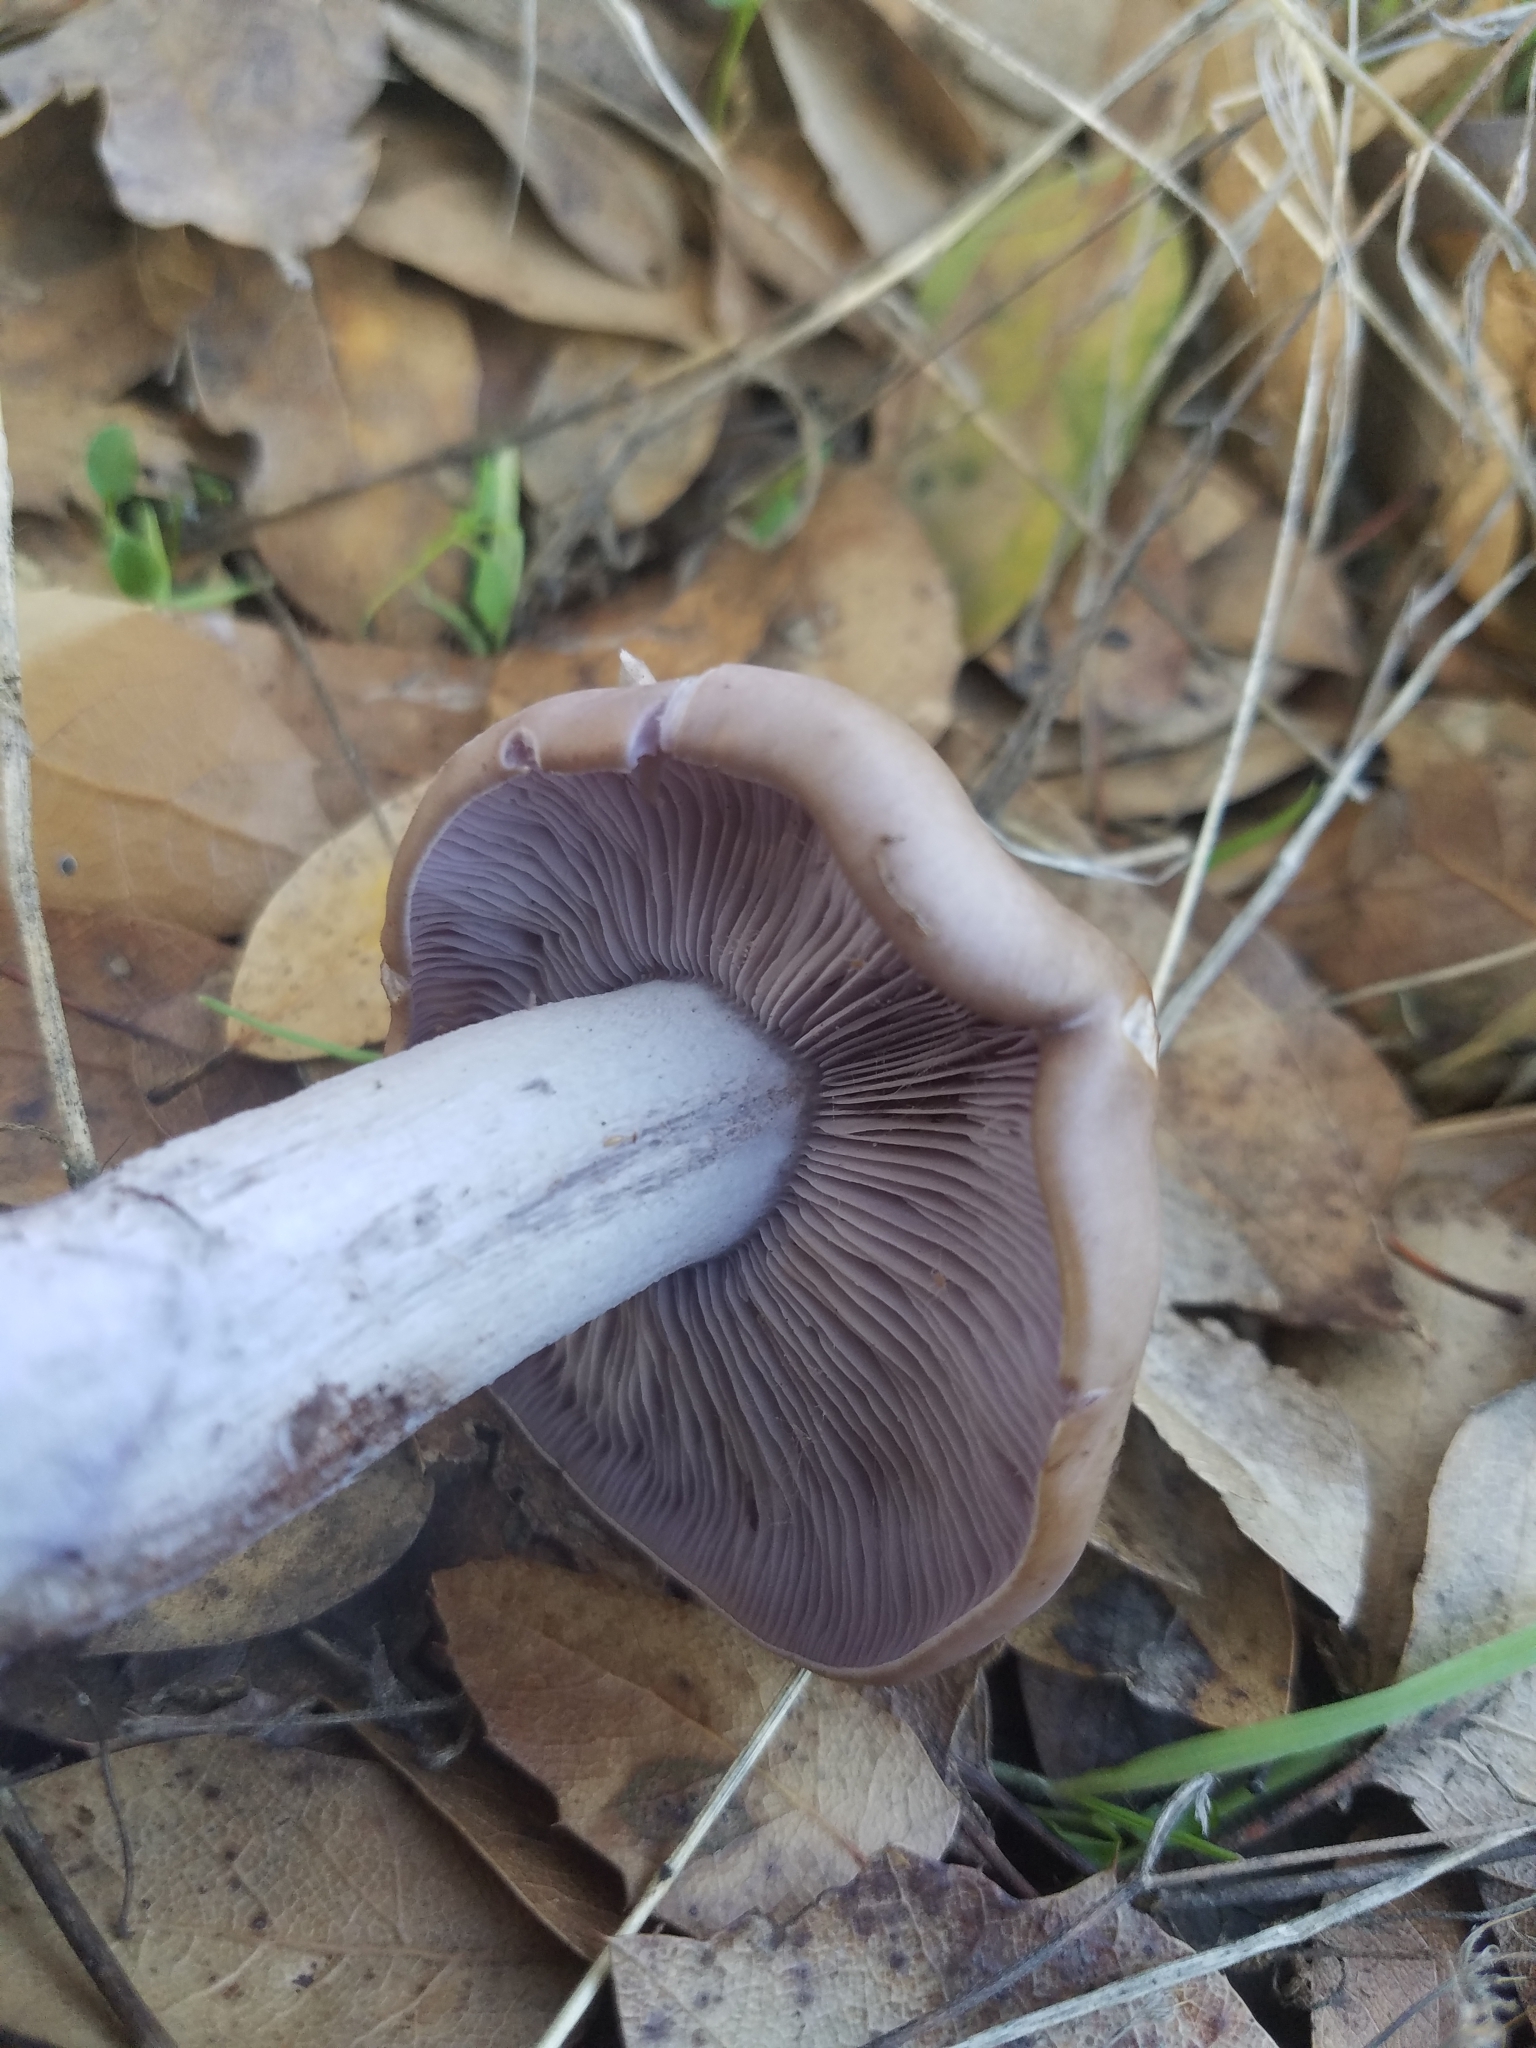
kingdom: Fungi
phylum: Basidiomycota
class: Agaricomycetes
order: Agaricales
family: Tricholomataceae
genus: Collybia
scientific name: Collybia
